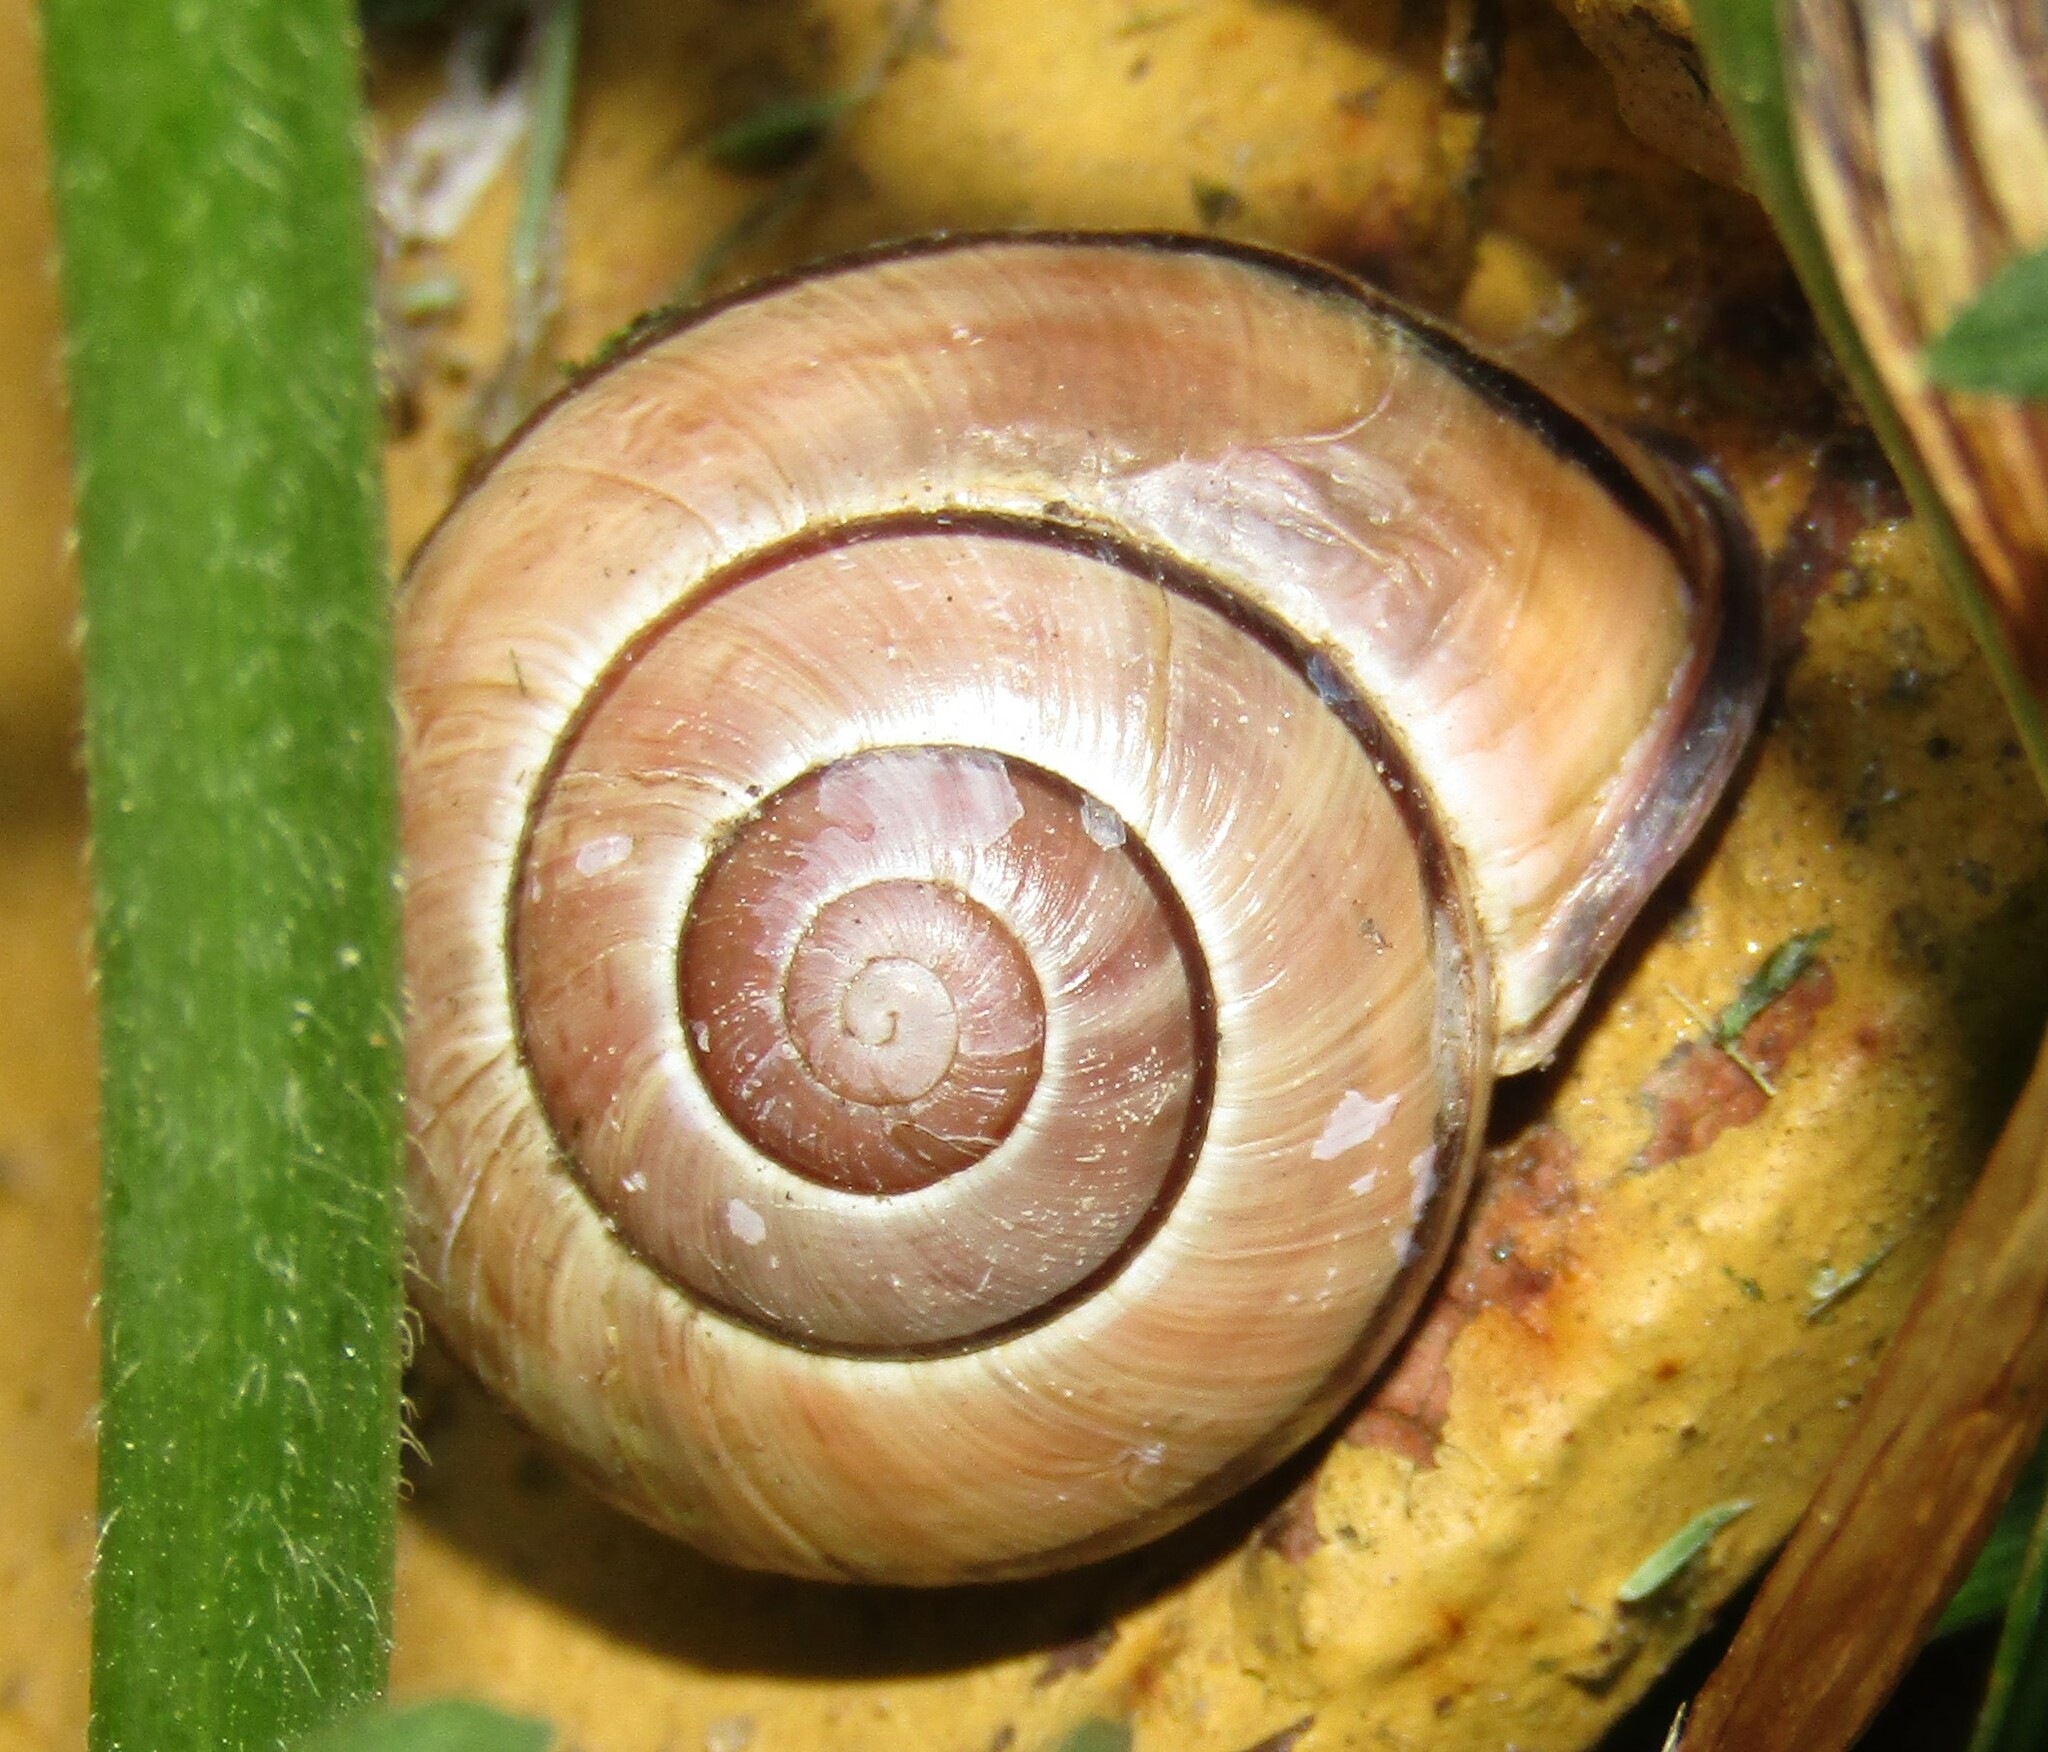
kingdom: Animalia
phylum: Mollusca
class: Gastropoda
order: Stylommatophora
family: Helicidae
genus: Cepaea
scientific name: Cepaea nemoralis
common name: Grovesnail
